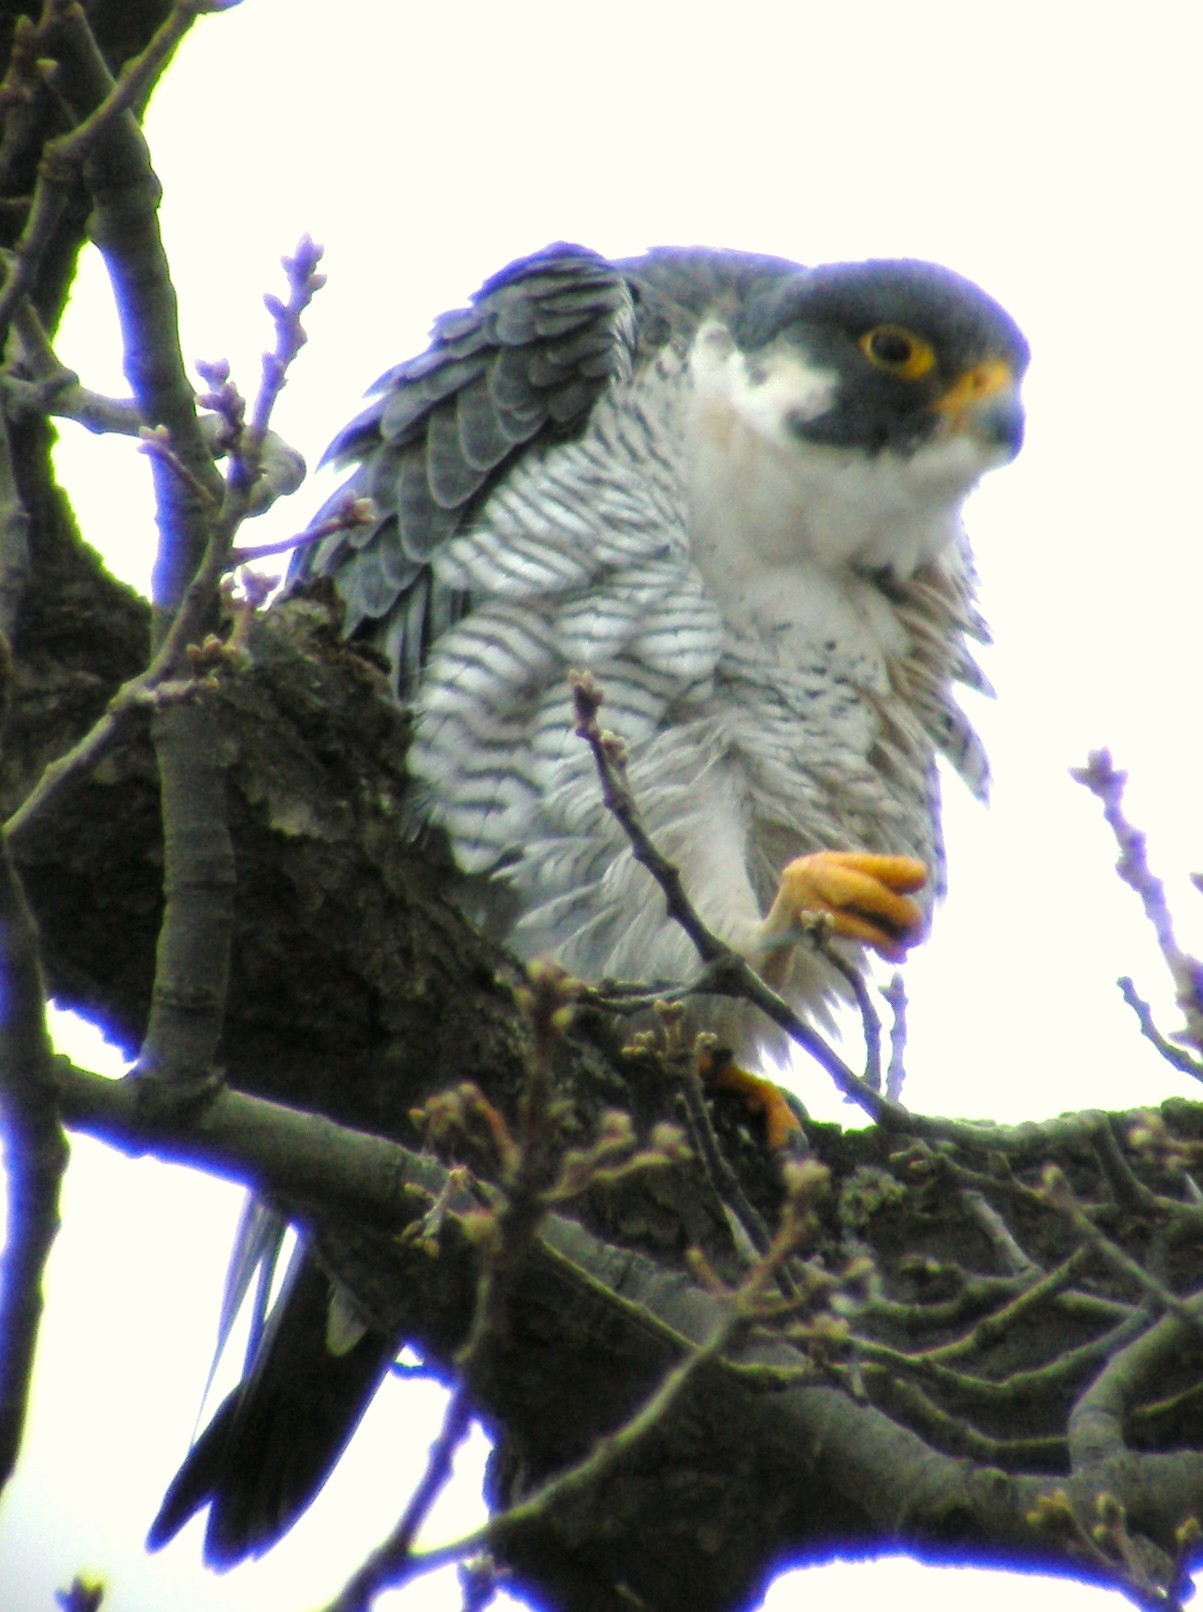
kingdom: Animalia
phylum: Chordata
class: Aves
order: Falconiformes
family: Falconidae
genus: Falco
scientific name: Falco peregrinus
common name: Peregrine falcon
